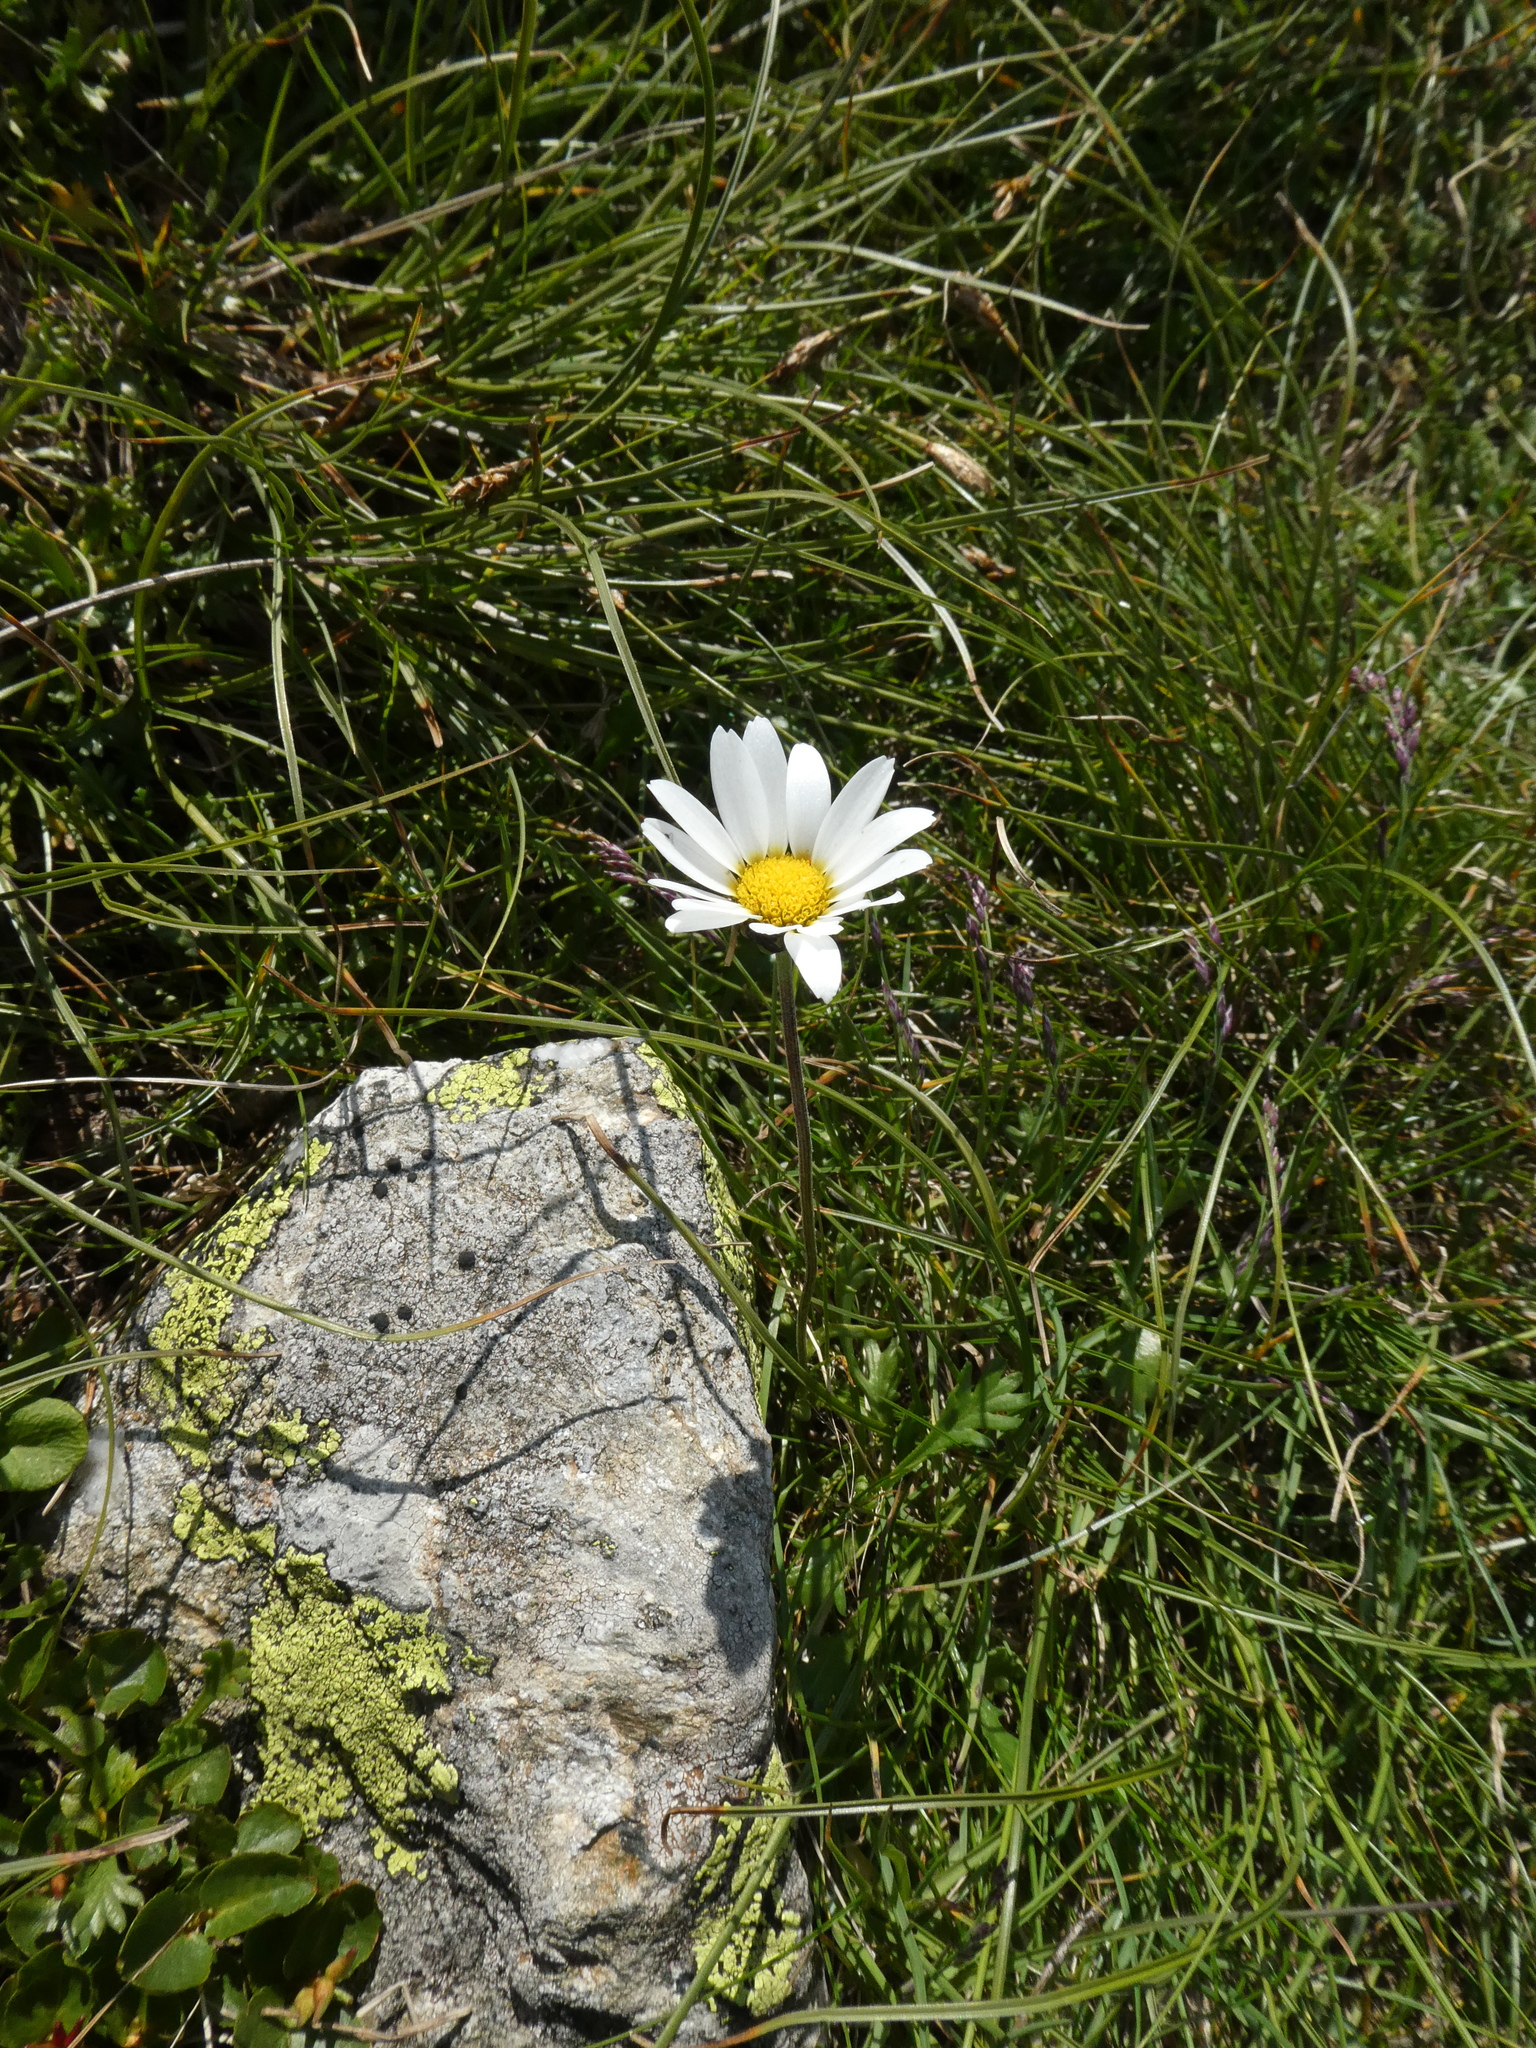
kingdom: Plantae
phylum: Tracheophyta
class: Magnoliopsida
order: Asterales
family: Asteraceae
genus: Leucanthemopsis
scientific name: Leucanthemopsis alpina
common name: Alpine moon daisy
